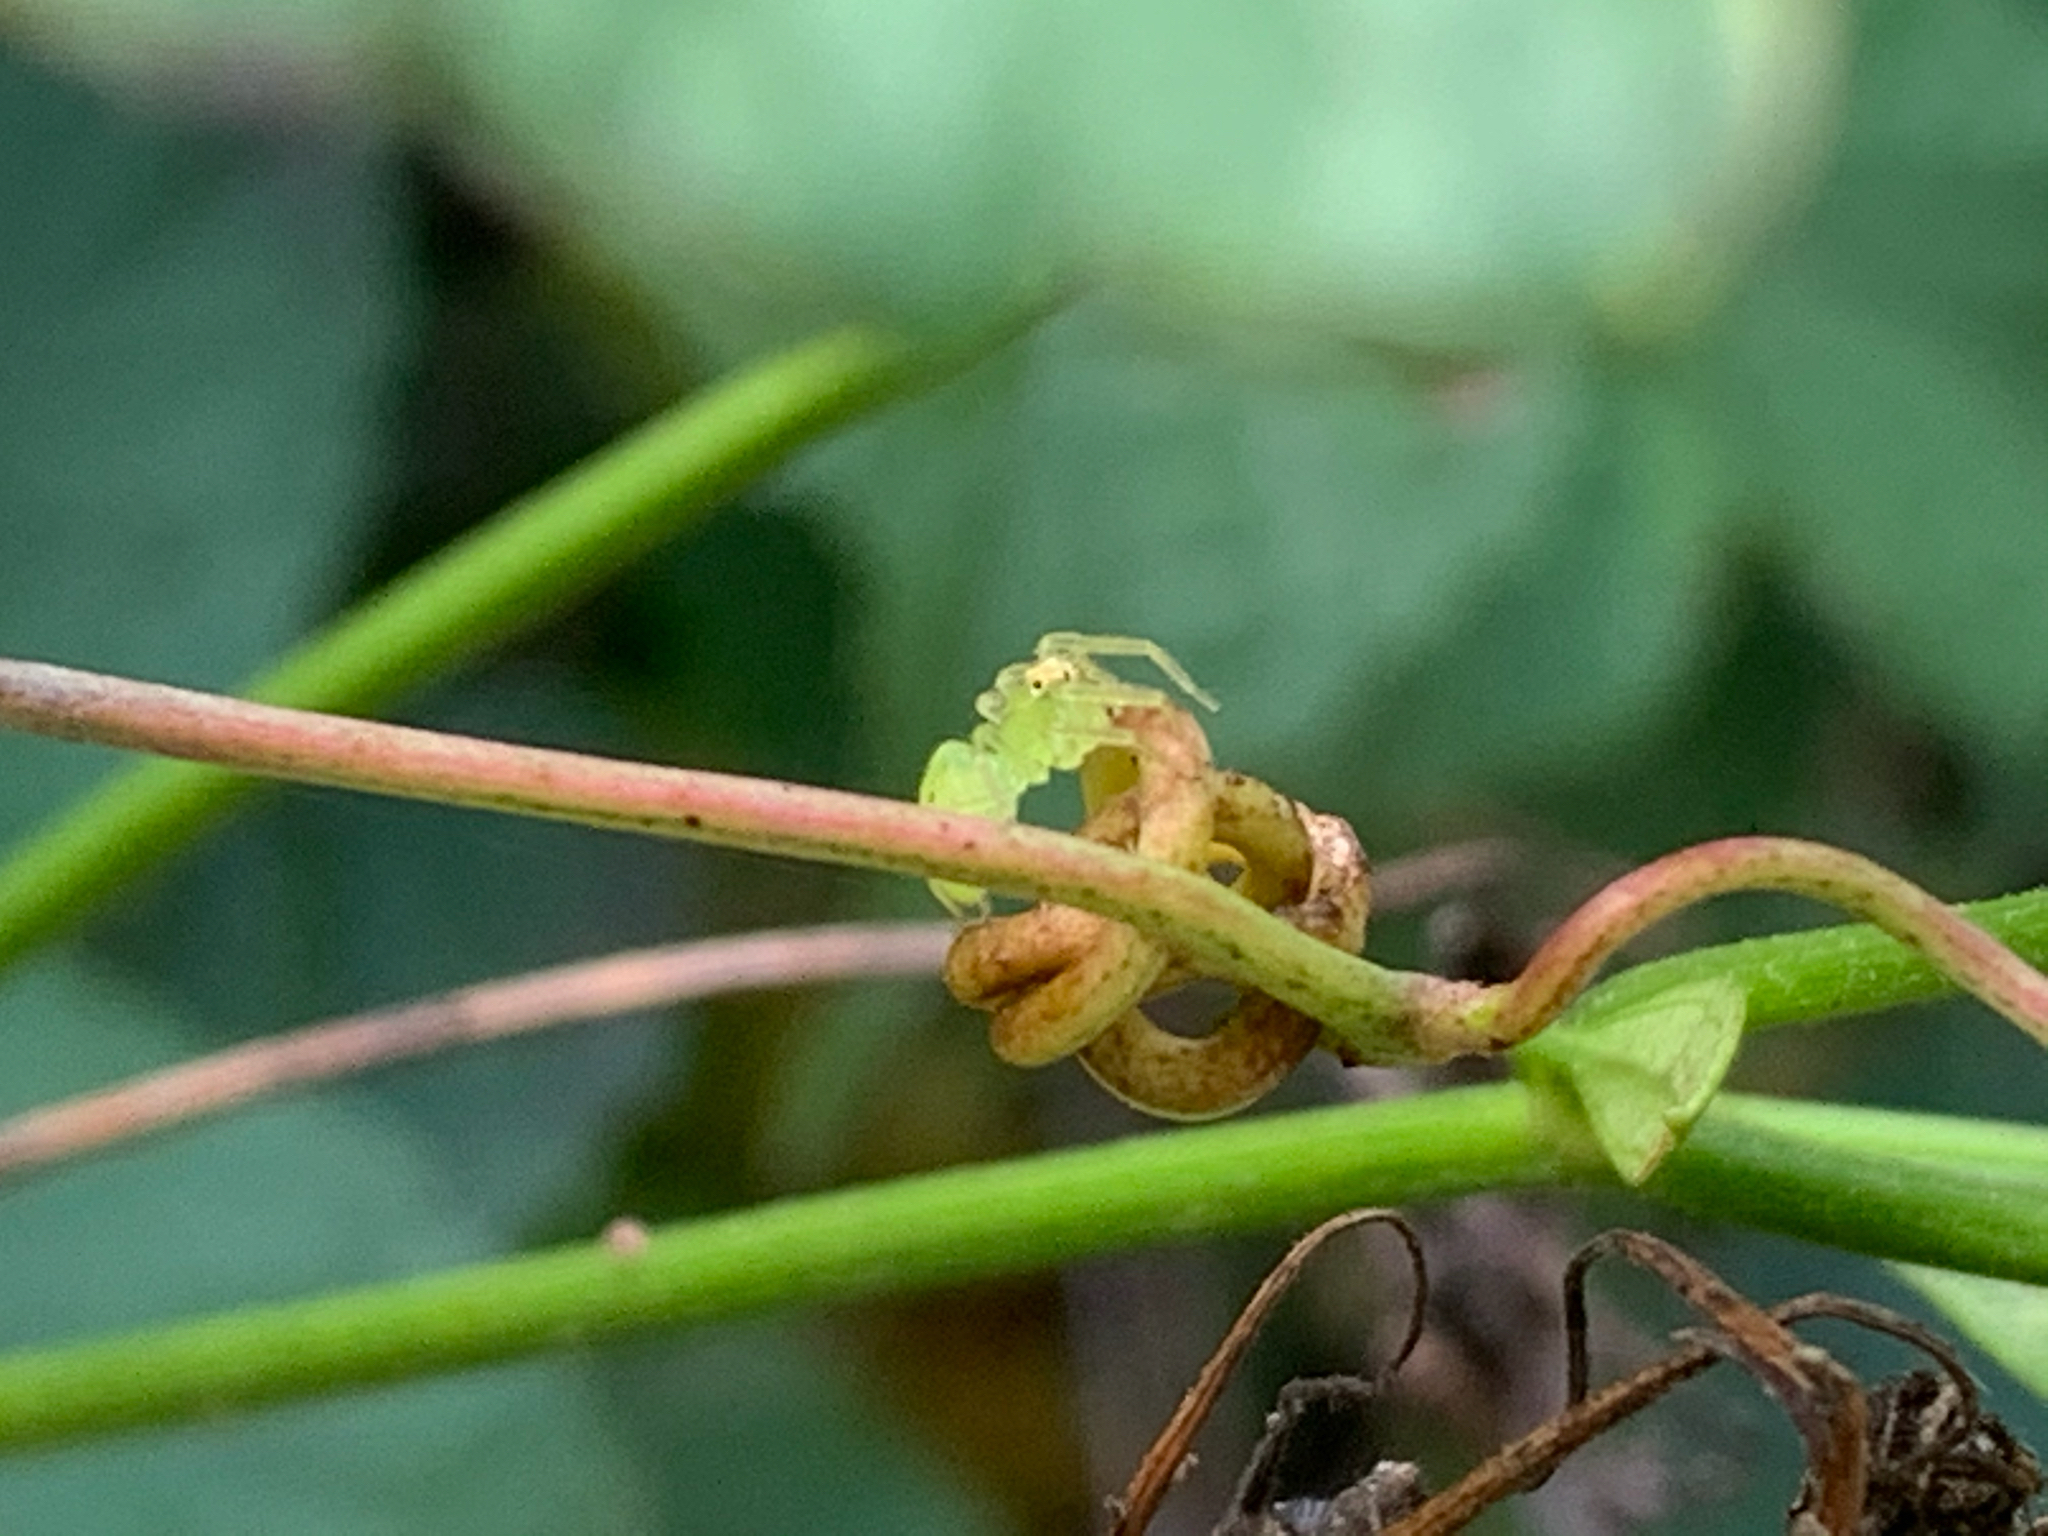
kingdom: Animalia
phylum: Arthropoda
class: Arachnida
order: Araneae
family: Salticidae
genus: Lyssomanes
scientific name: Lyssomanes viridis
